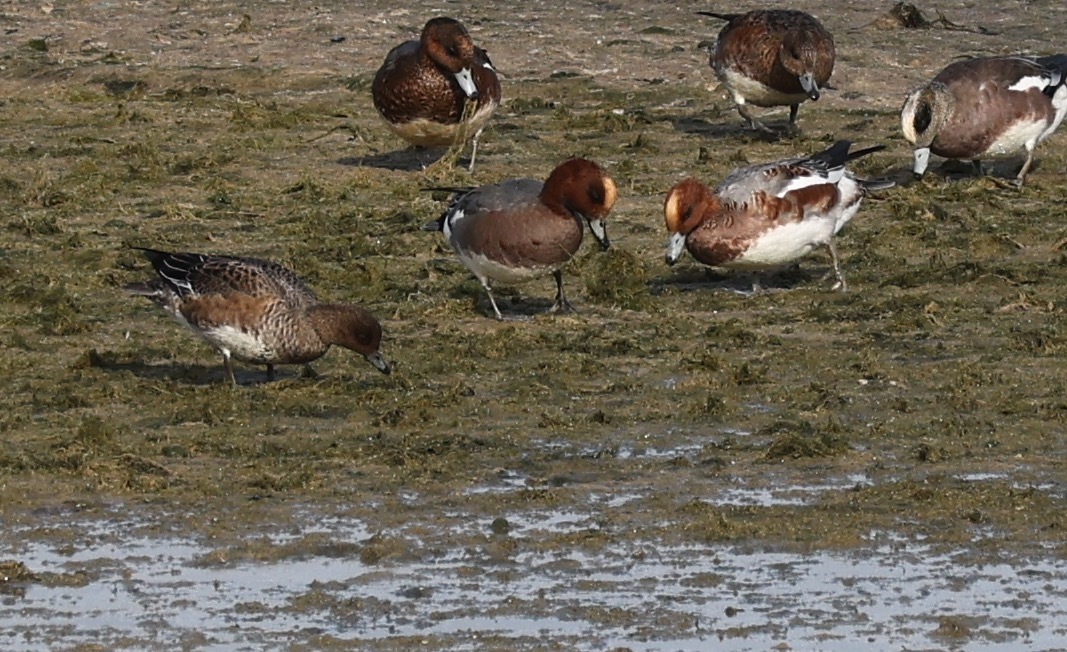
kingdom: Animalia
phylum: Chordata
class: Aves
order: Anseriformes
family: Anatidae
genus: Mareca
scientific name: Mareca penelope
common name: Eurasian wigeon
